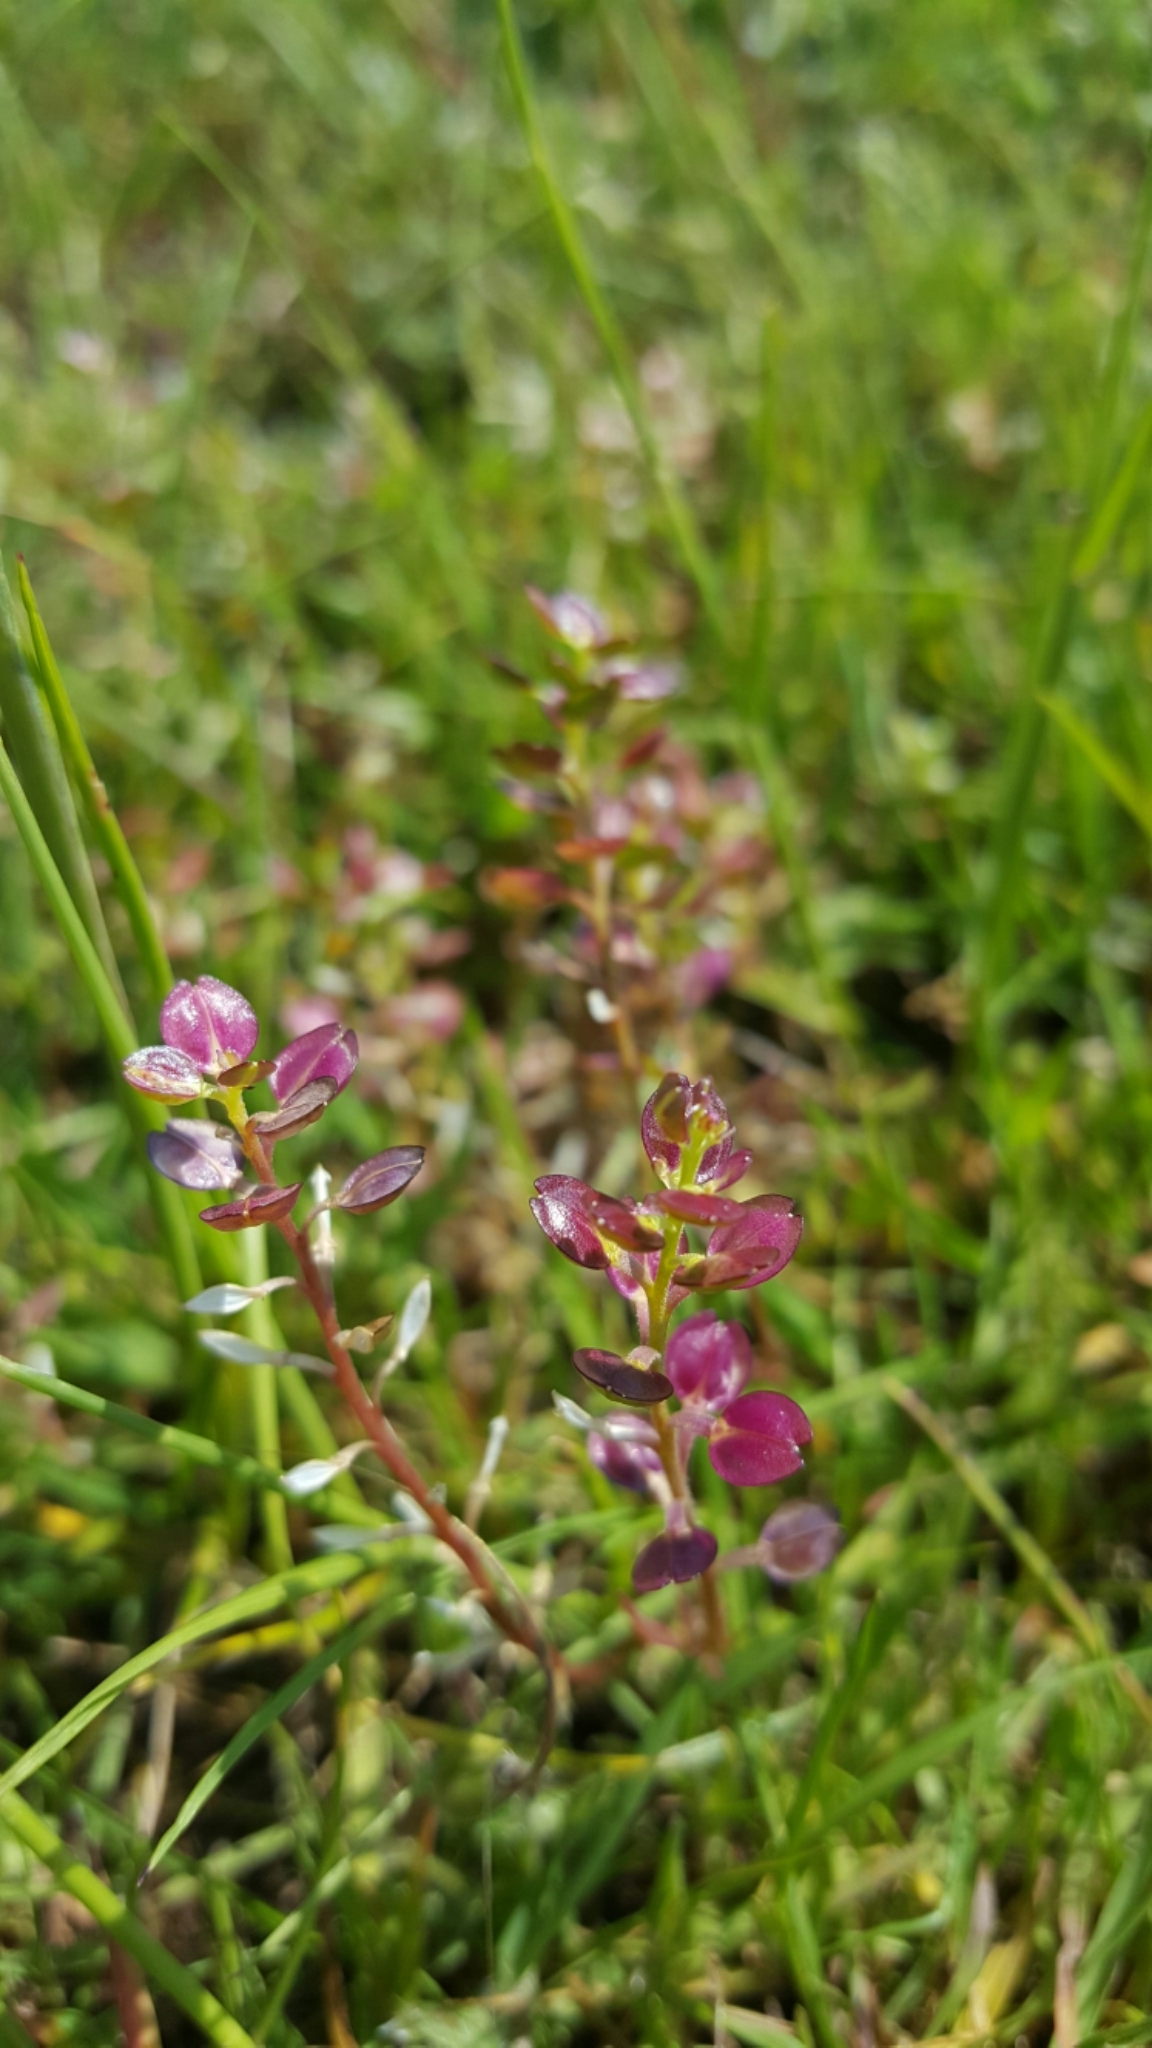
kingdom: Plantae
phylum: Tracheophyta
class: Magnoliopsida
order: Brassicales
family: Brassicaceae
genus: Lepidium
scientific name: Lepidium nitidum
